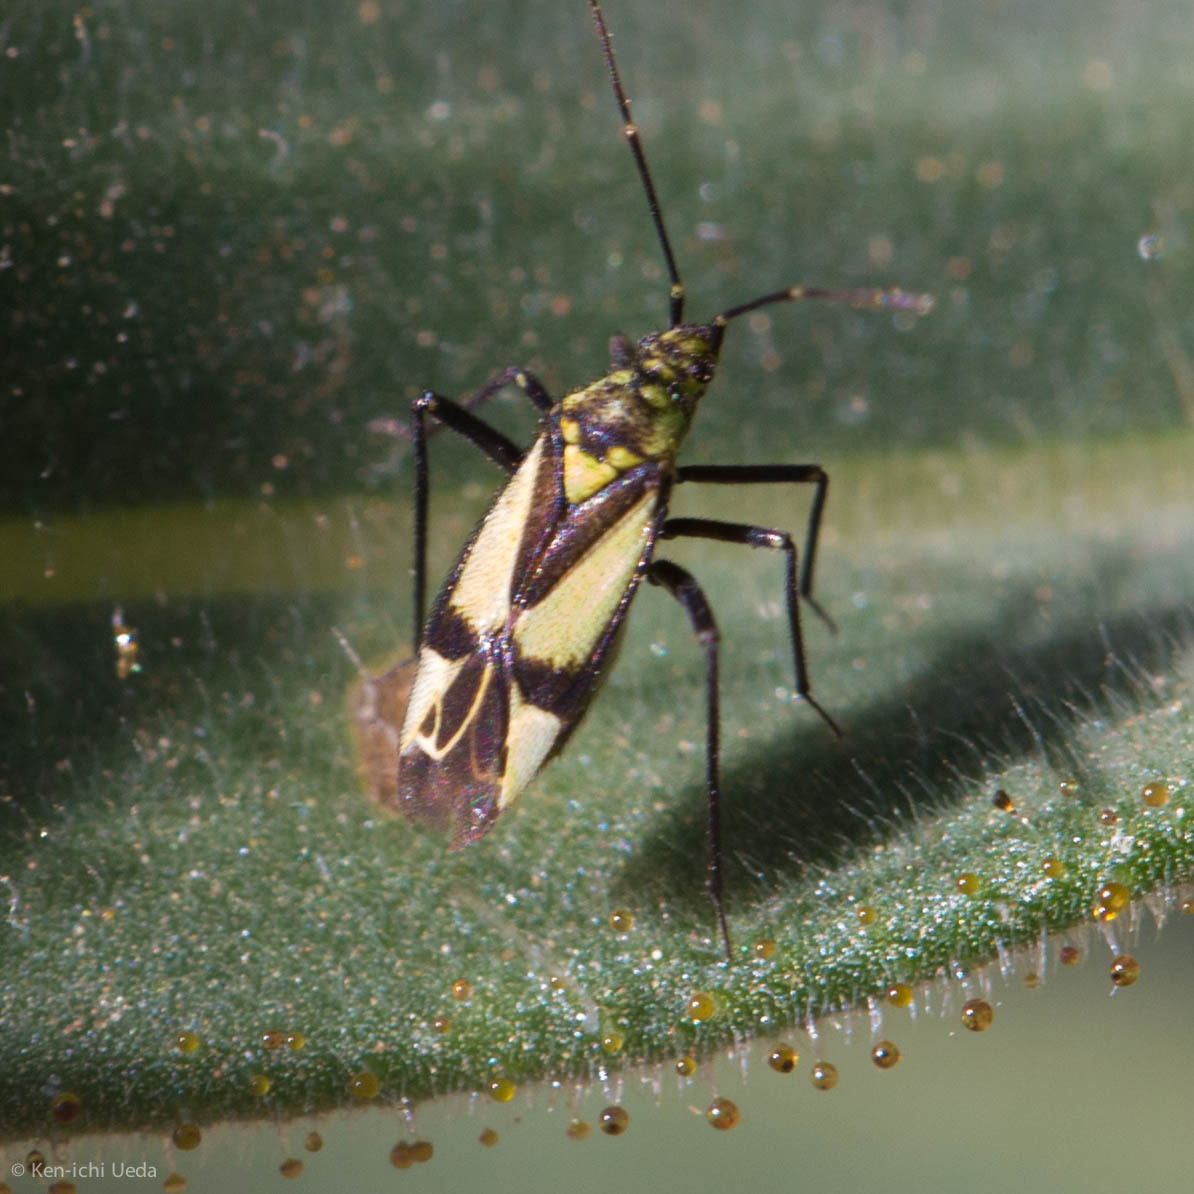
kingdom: Animalia
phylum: Arthropoda
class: Insecta
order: Hemiptera
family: Miridae
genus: Macrotylus
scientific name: Macrotylus essigi
